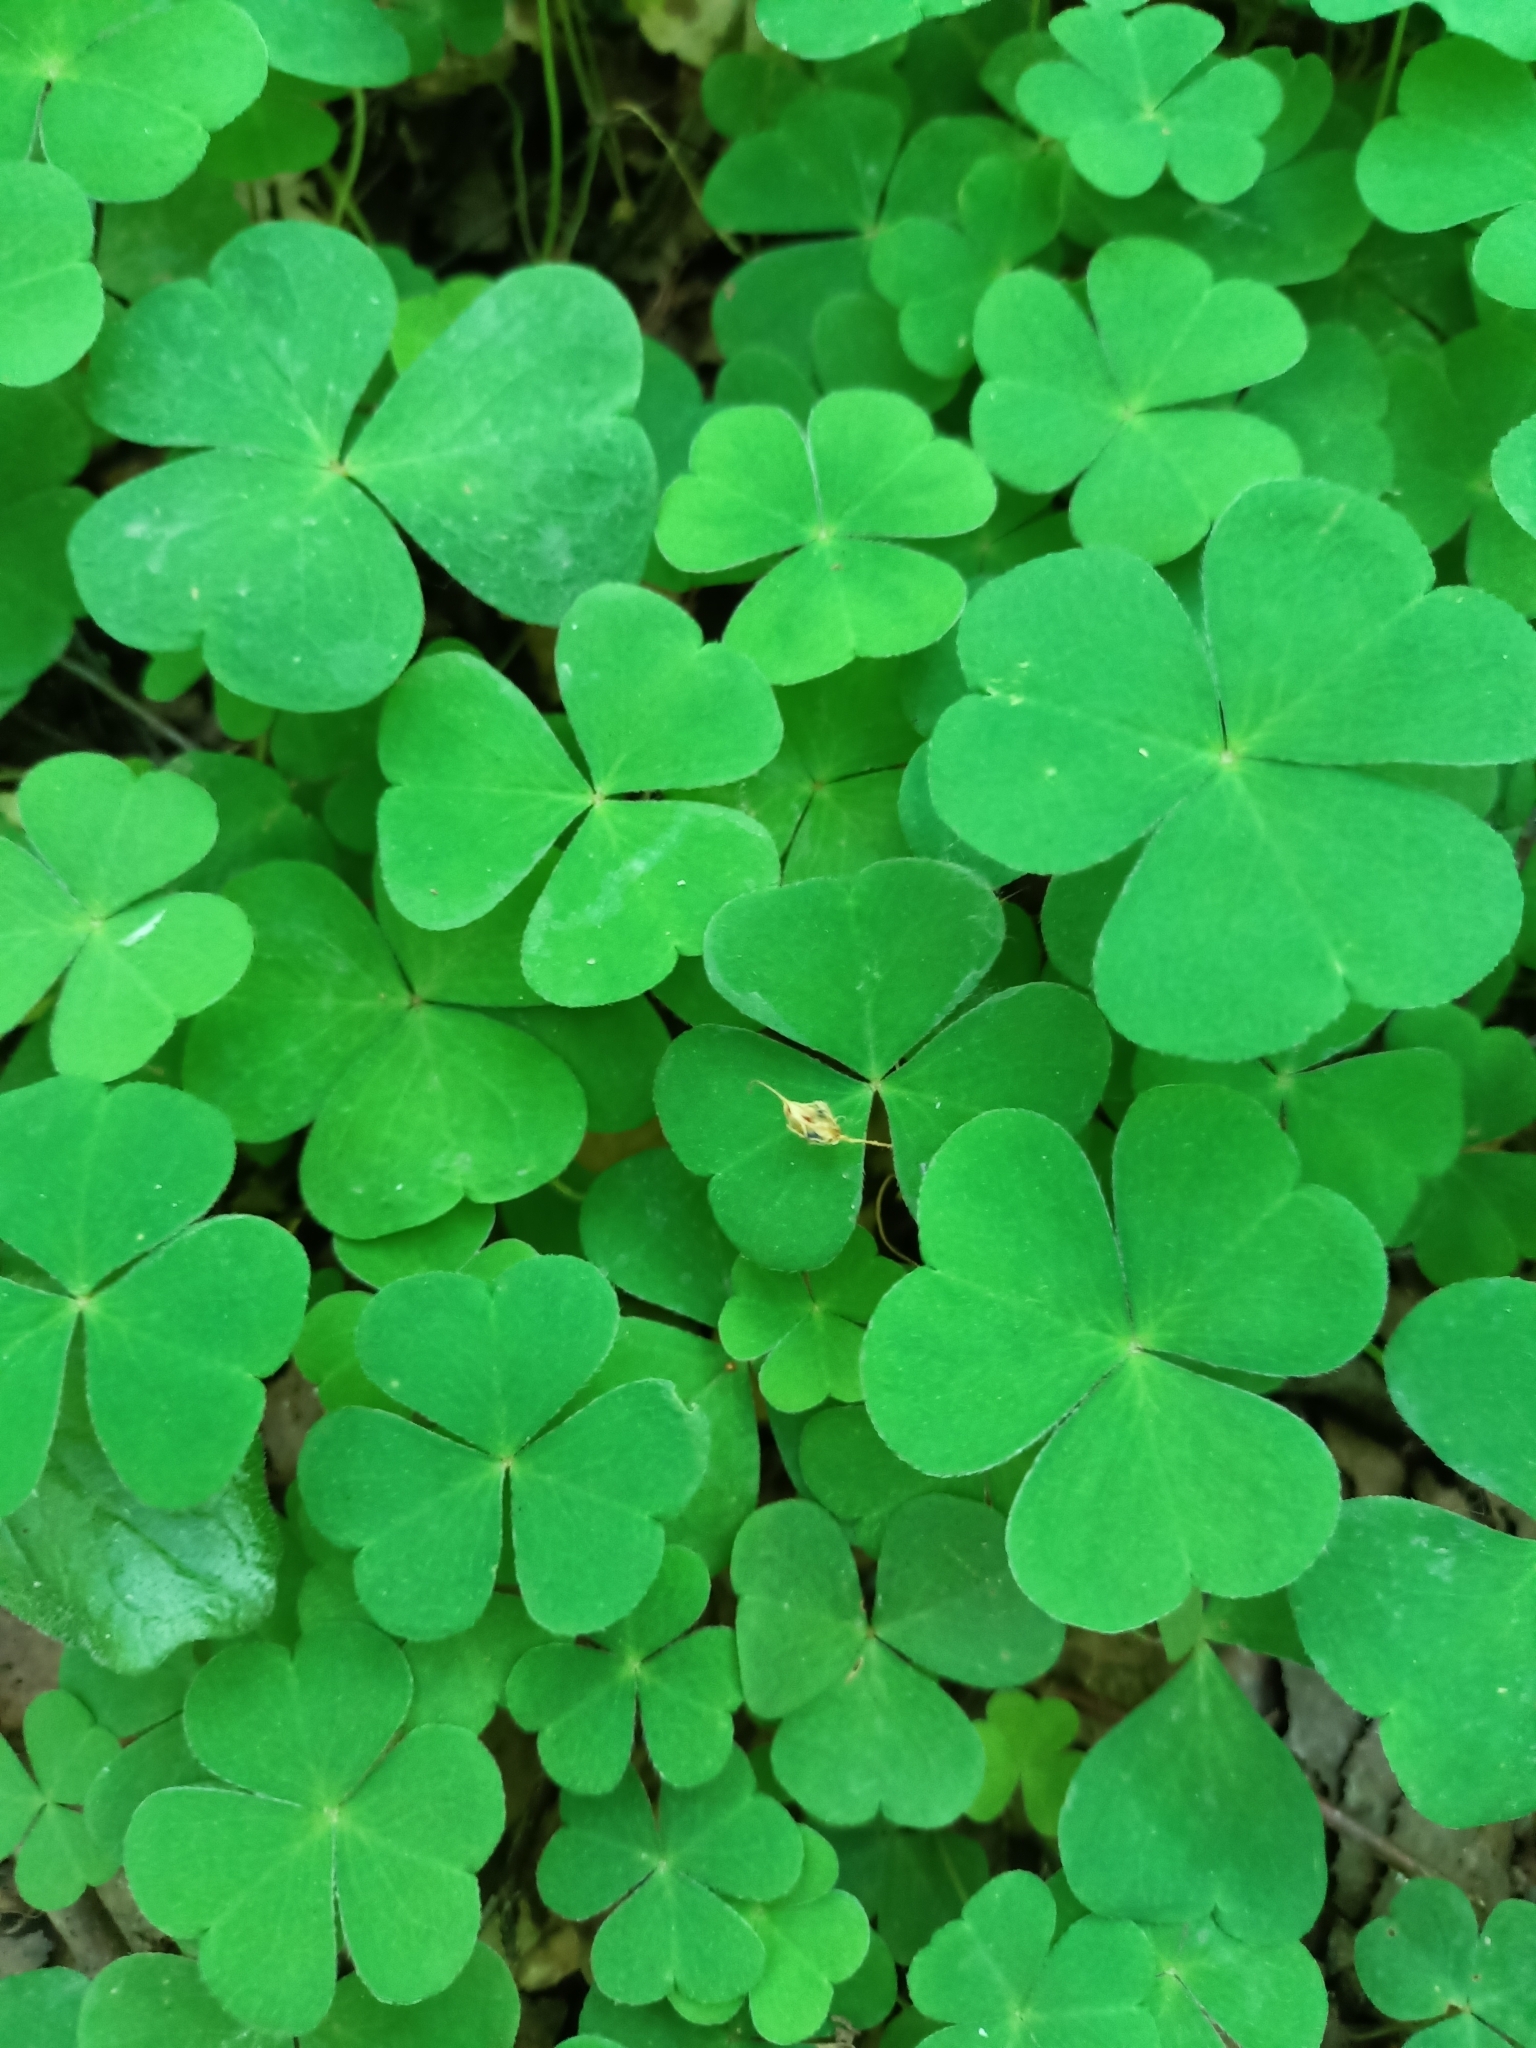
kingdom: Plantae
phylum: Tracheophyta
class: Magnoliopsida
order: Oxalidales
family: Oxalidaceae
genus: Oxalis
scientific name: Oxalis acetosella
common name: Wood-sorrel
